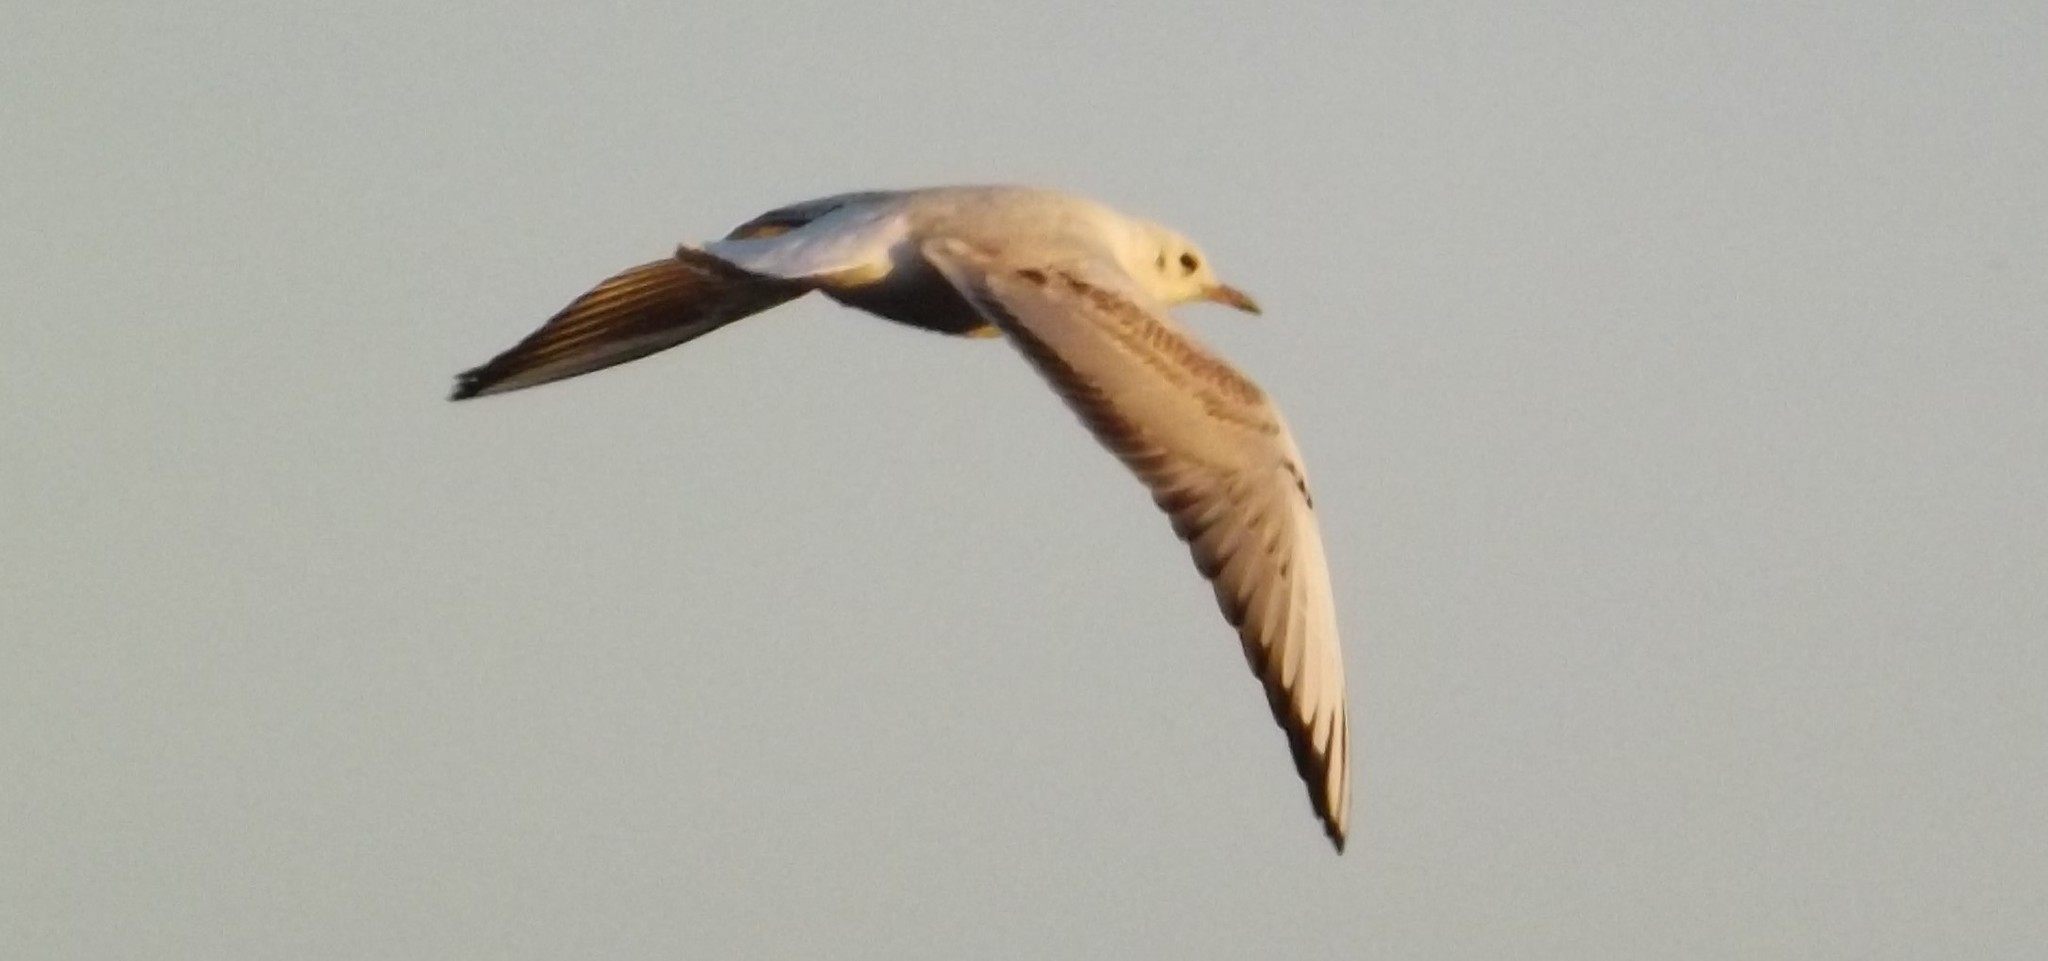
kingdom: Animalia
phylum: Chordata
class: Aves
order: Charadriiformes
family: Laridae
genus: Chroicocephalus
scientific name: Chroicocephalus ridibundus
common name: Black-headed gull
